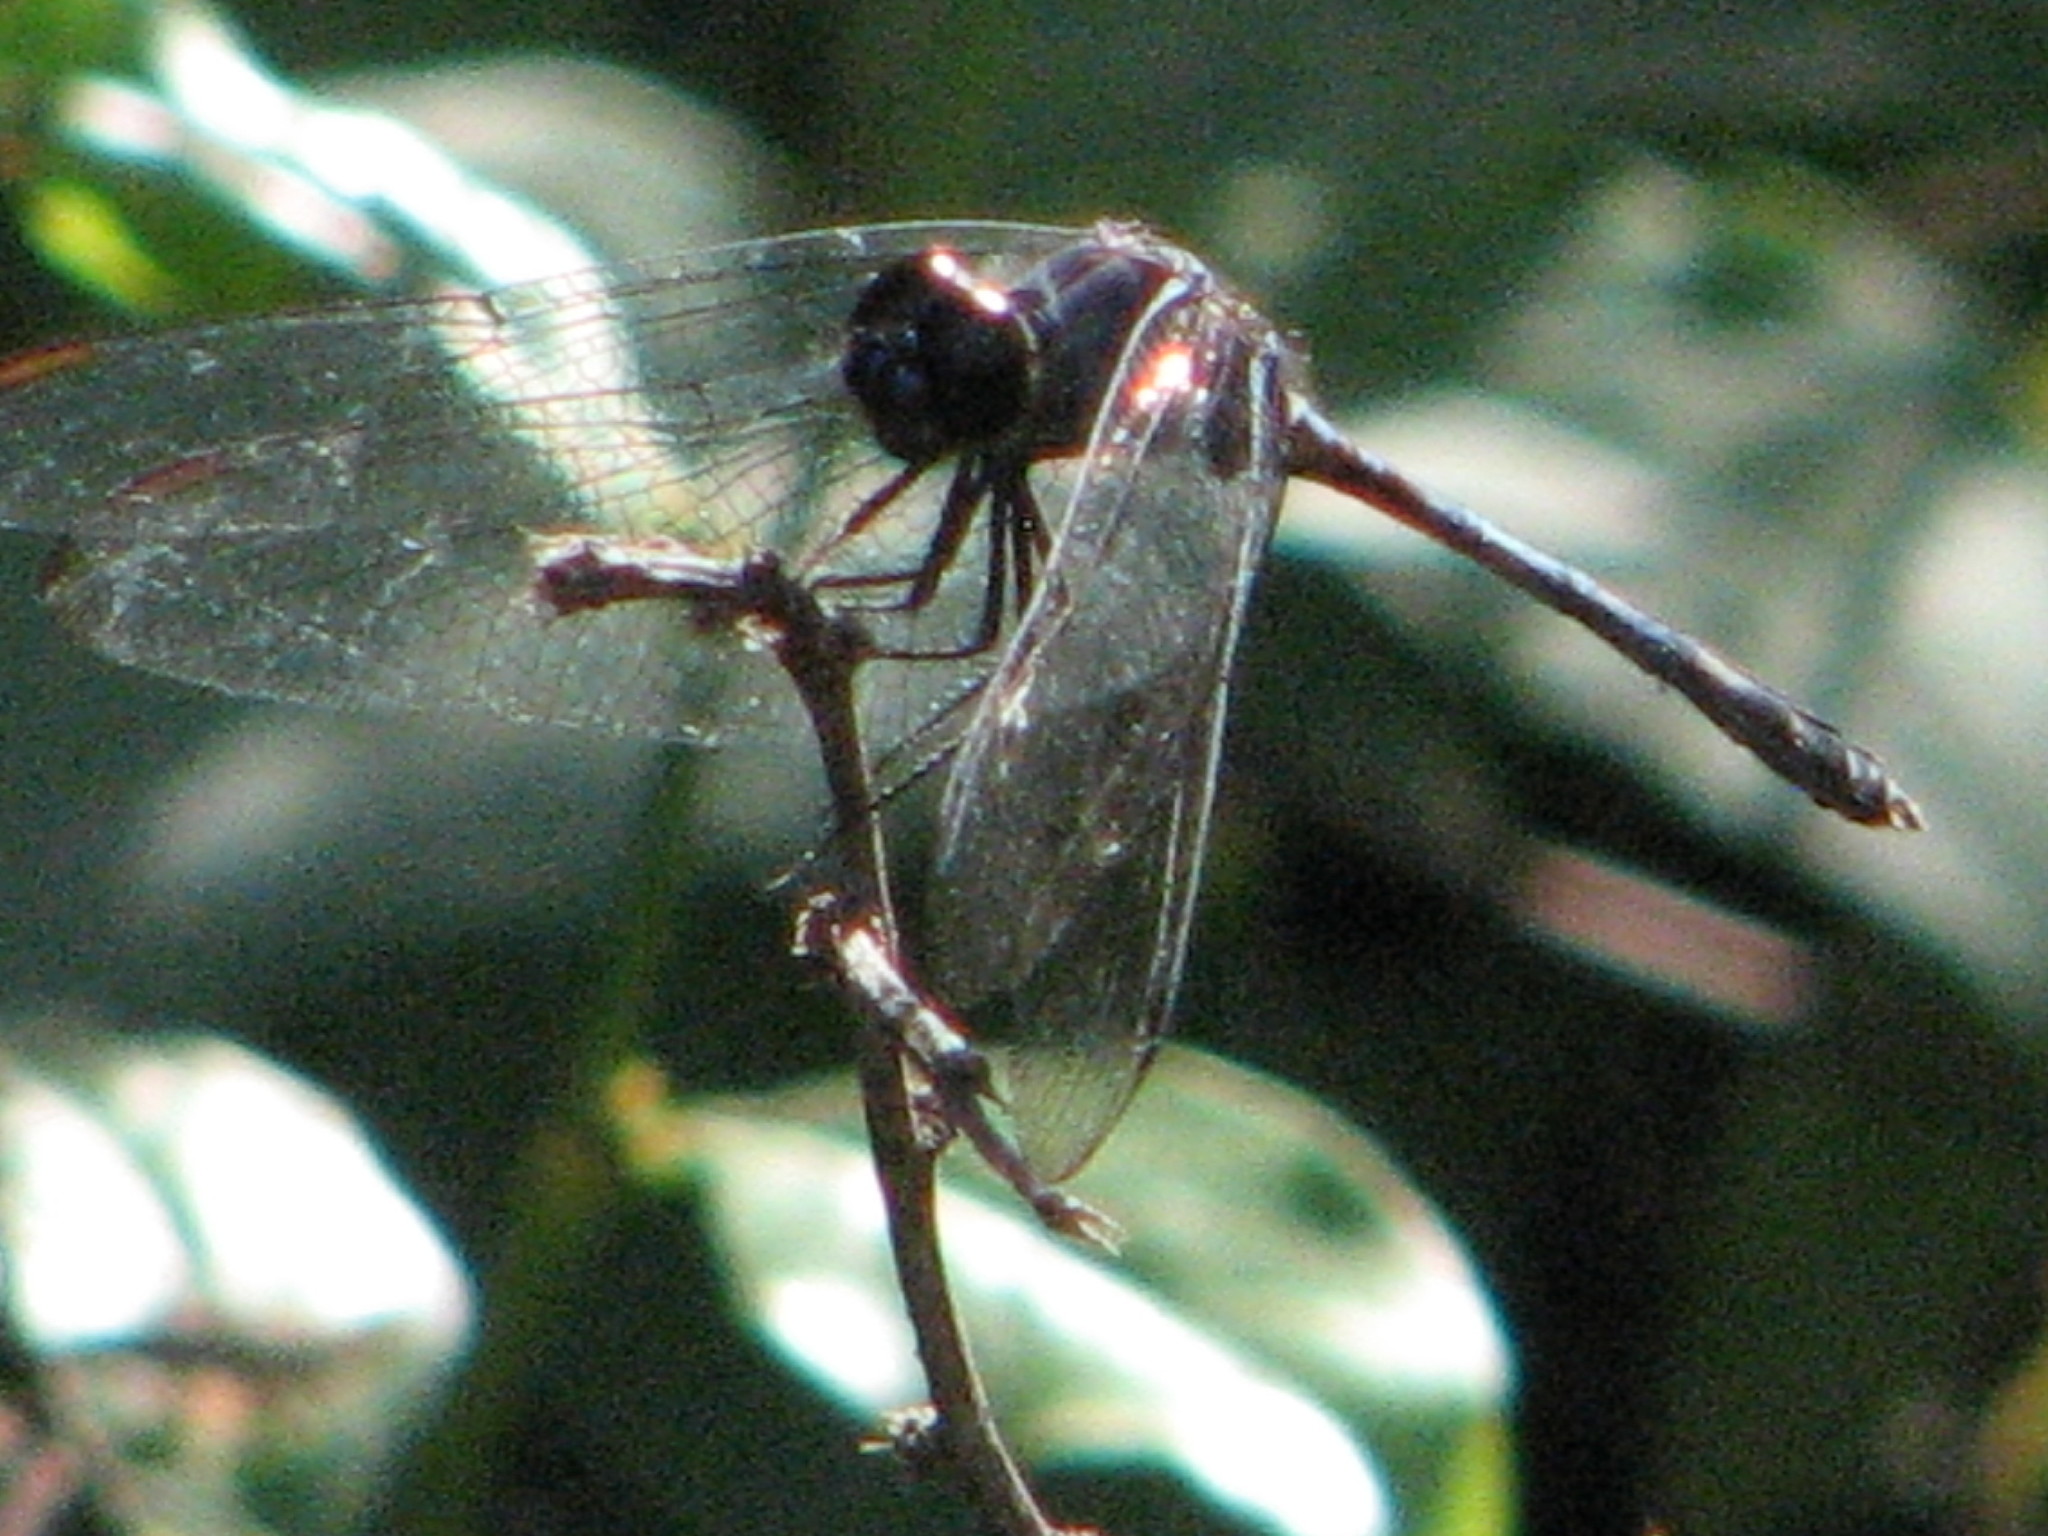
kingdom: Animalia
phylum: Arthropoda
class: Insecta
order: Odonata
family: Libellulidae
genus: Dythemis
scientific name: Dythemis nigrescens
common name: Black setwing
